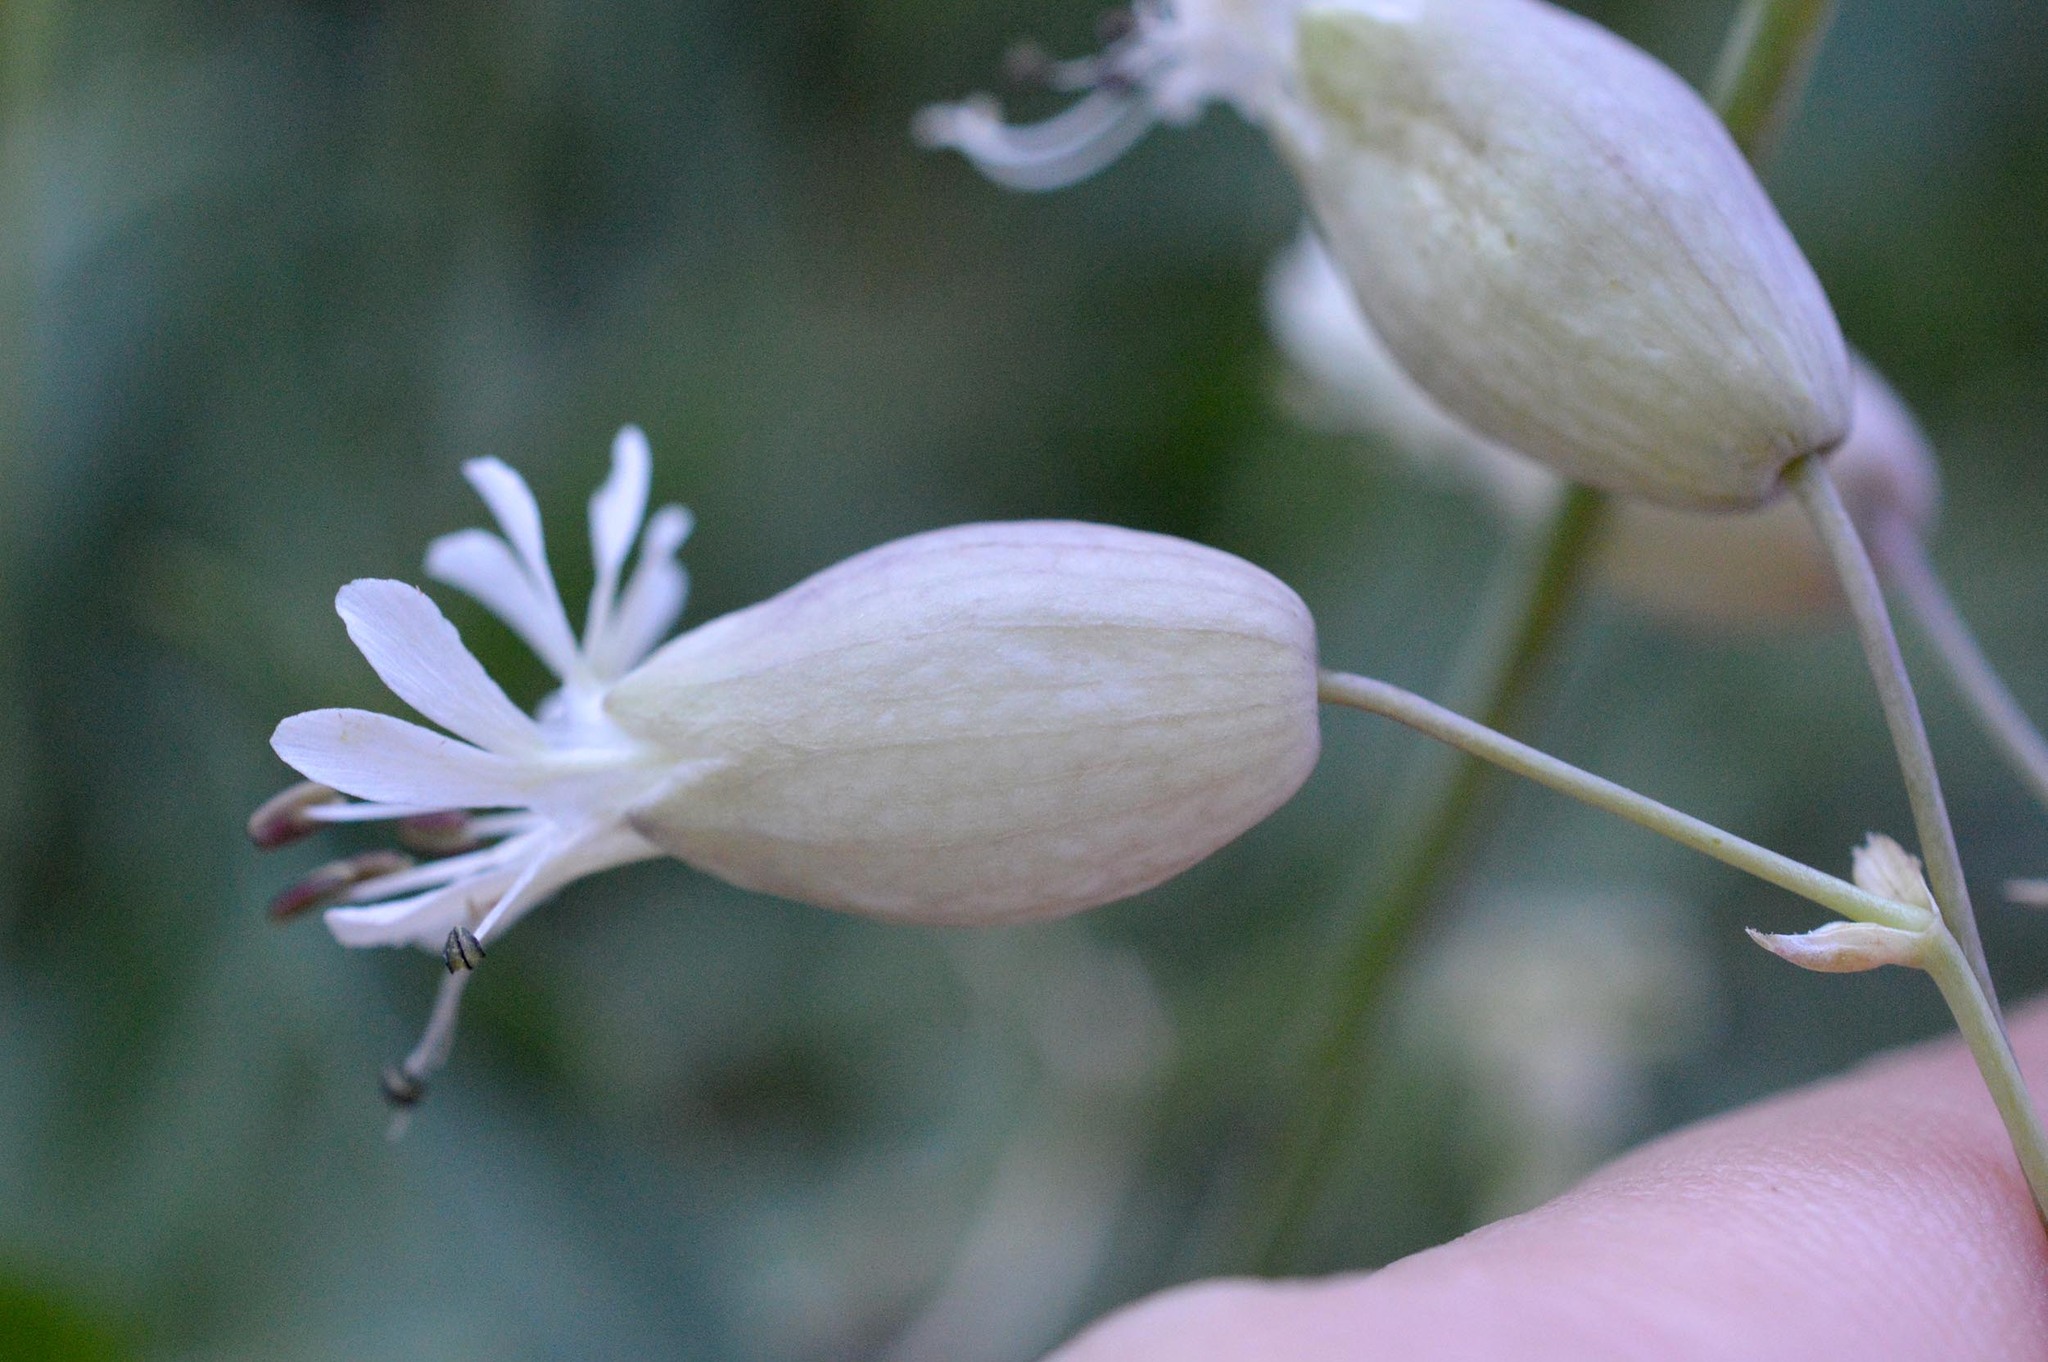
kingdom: Plantae
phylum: Tracheophyta
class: Magnoliopsida
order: Caryophyllales
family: Caryophyllaceae
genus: Silene
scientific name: Silene vulgaris
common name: Bladder campion
